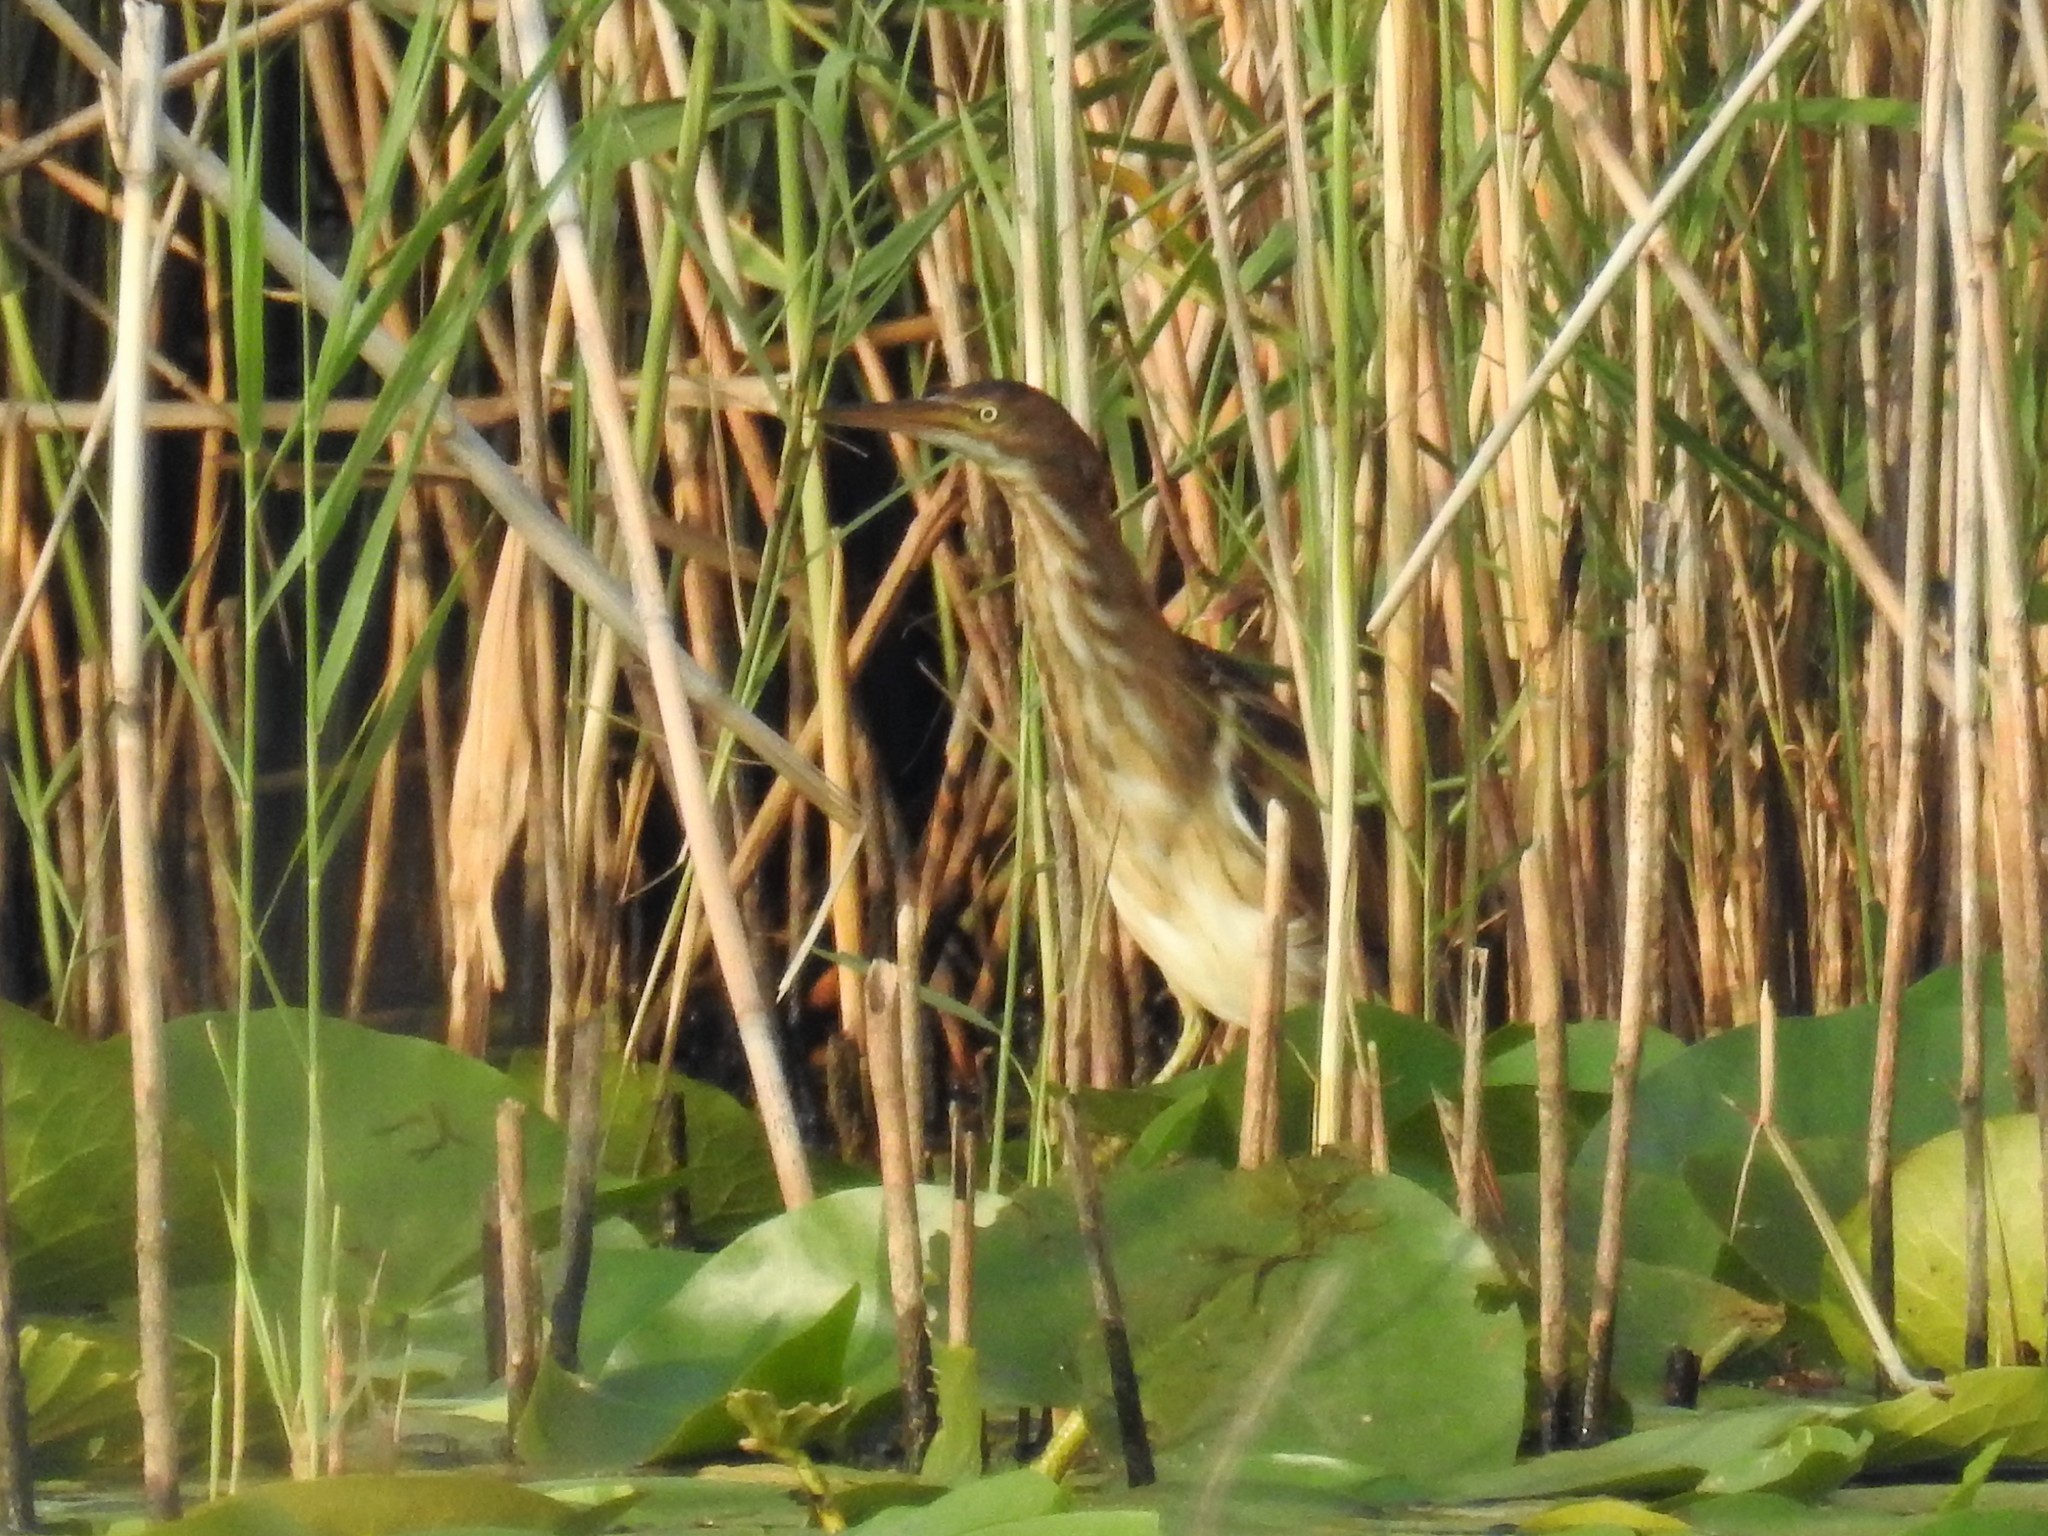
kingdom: Animalia
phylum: Chordata
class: Aves
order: Pelecaniformes
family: Ardeidae
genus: Ixobrychus
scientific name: Ixobrychus exilis
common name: Least bittern
